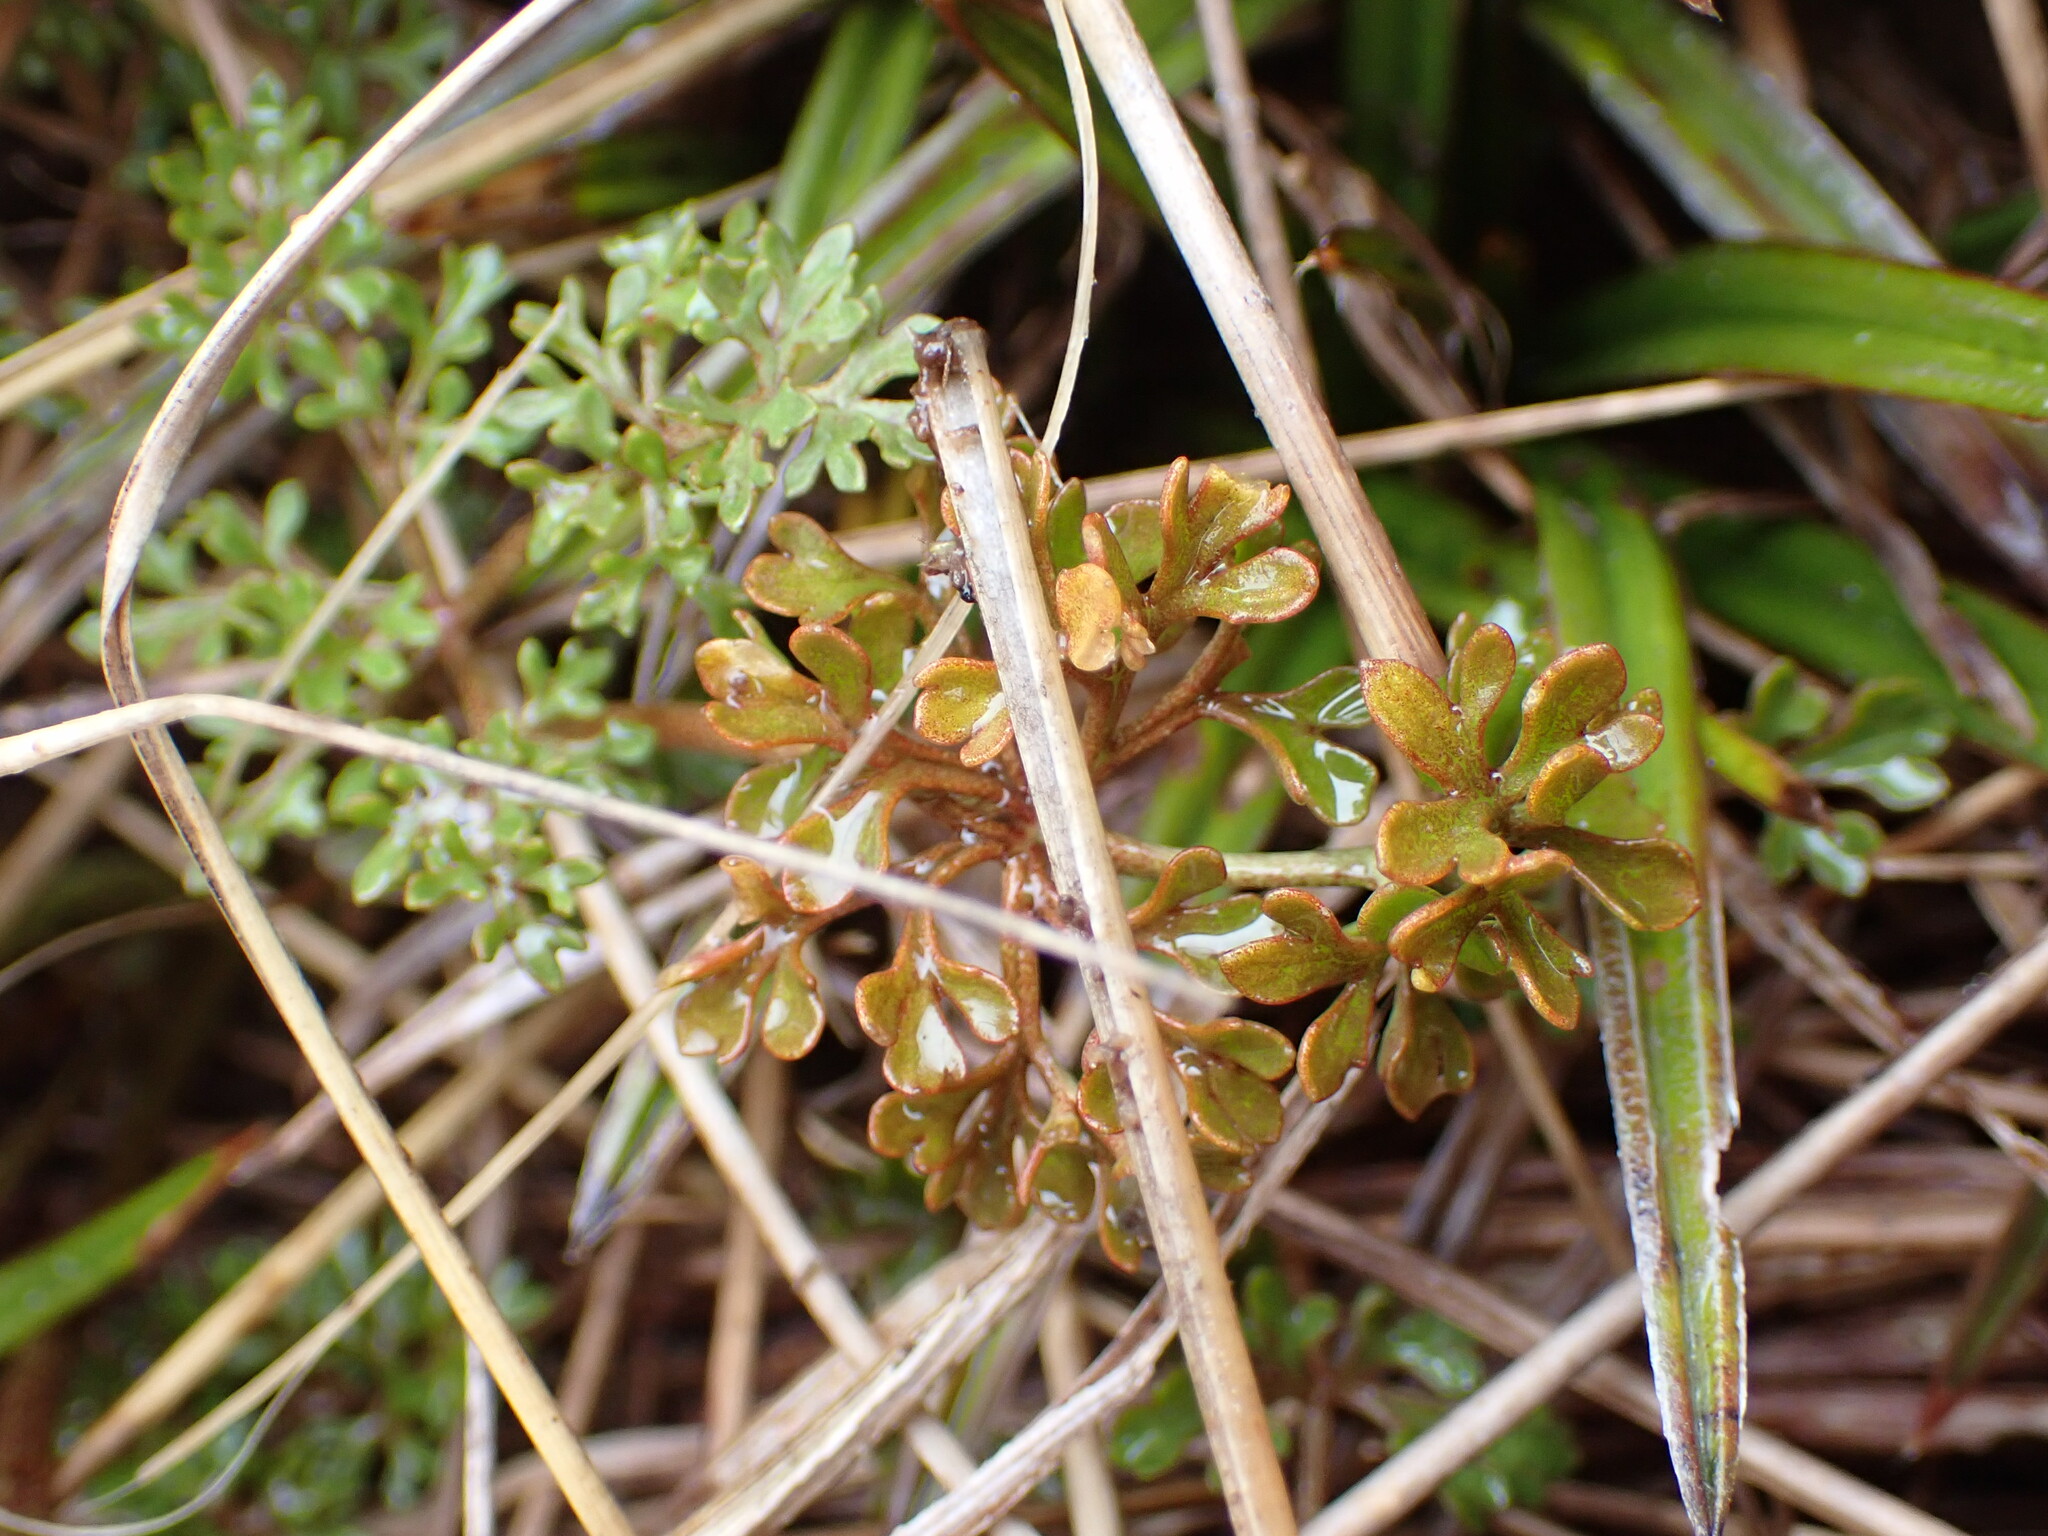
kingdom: Plantae
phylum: Tracheophyta
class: Magnoliopsida
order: Ranunculales
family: Ranunculaceae
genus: Ranunculus
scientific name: Ranunculus enysii
